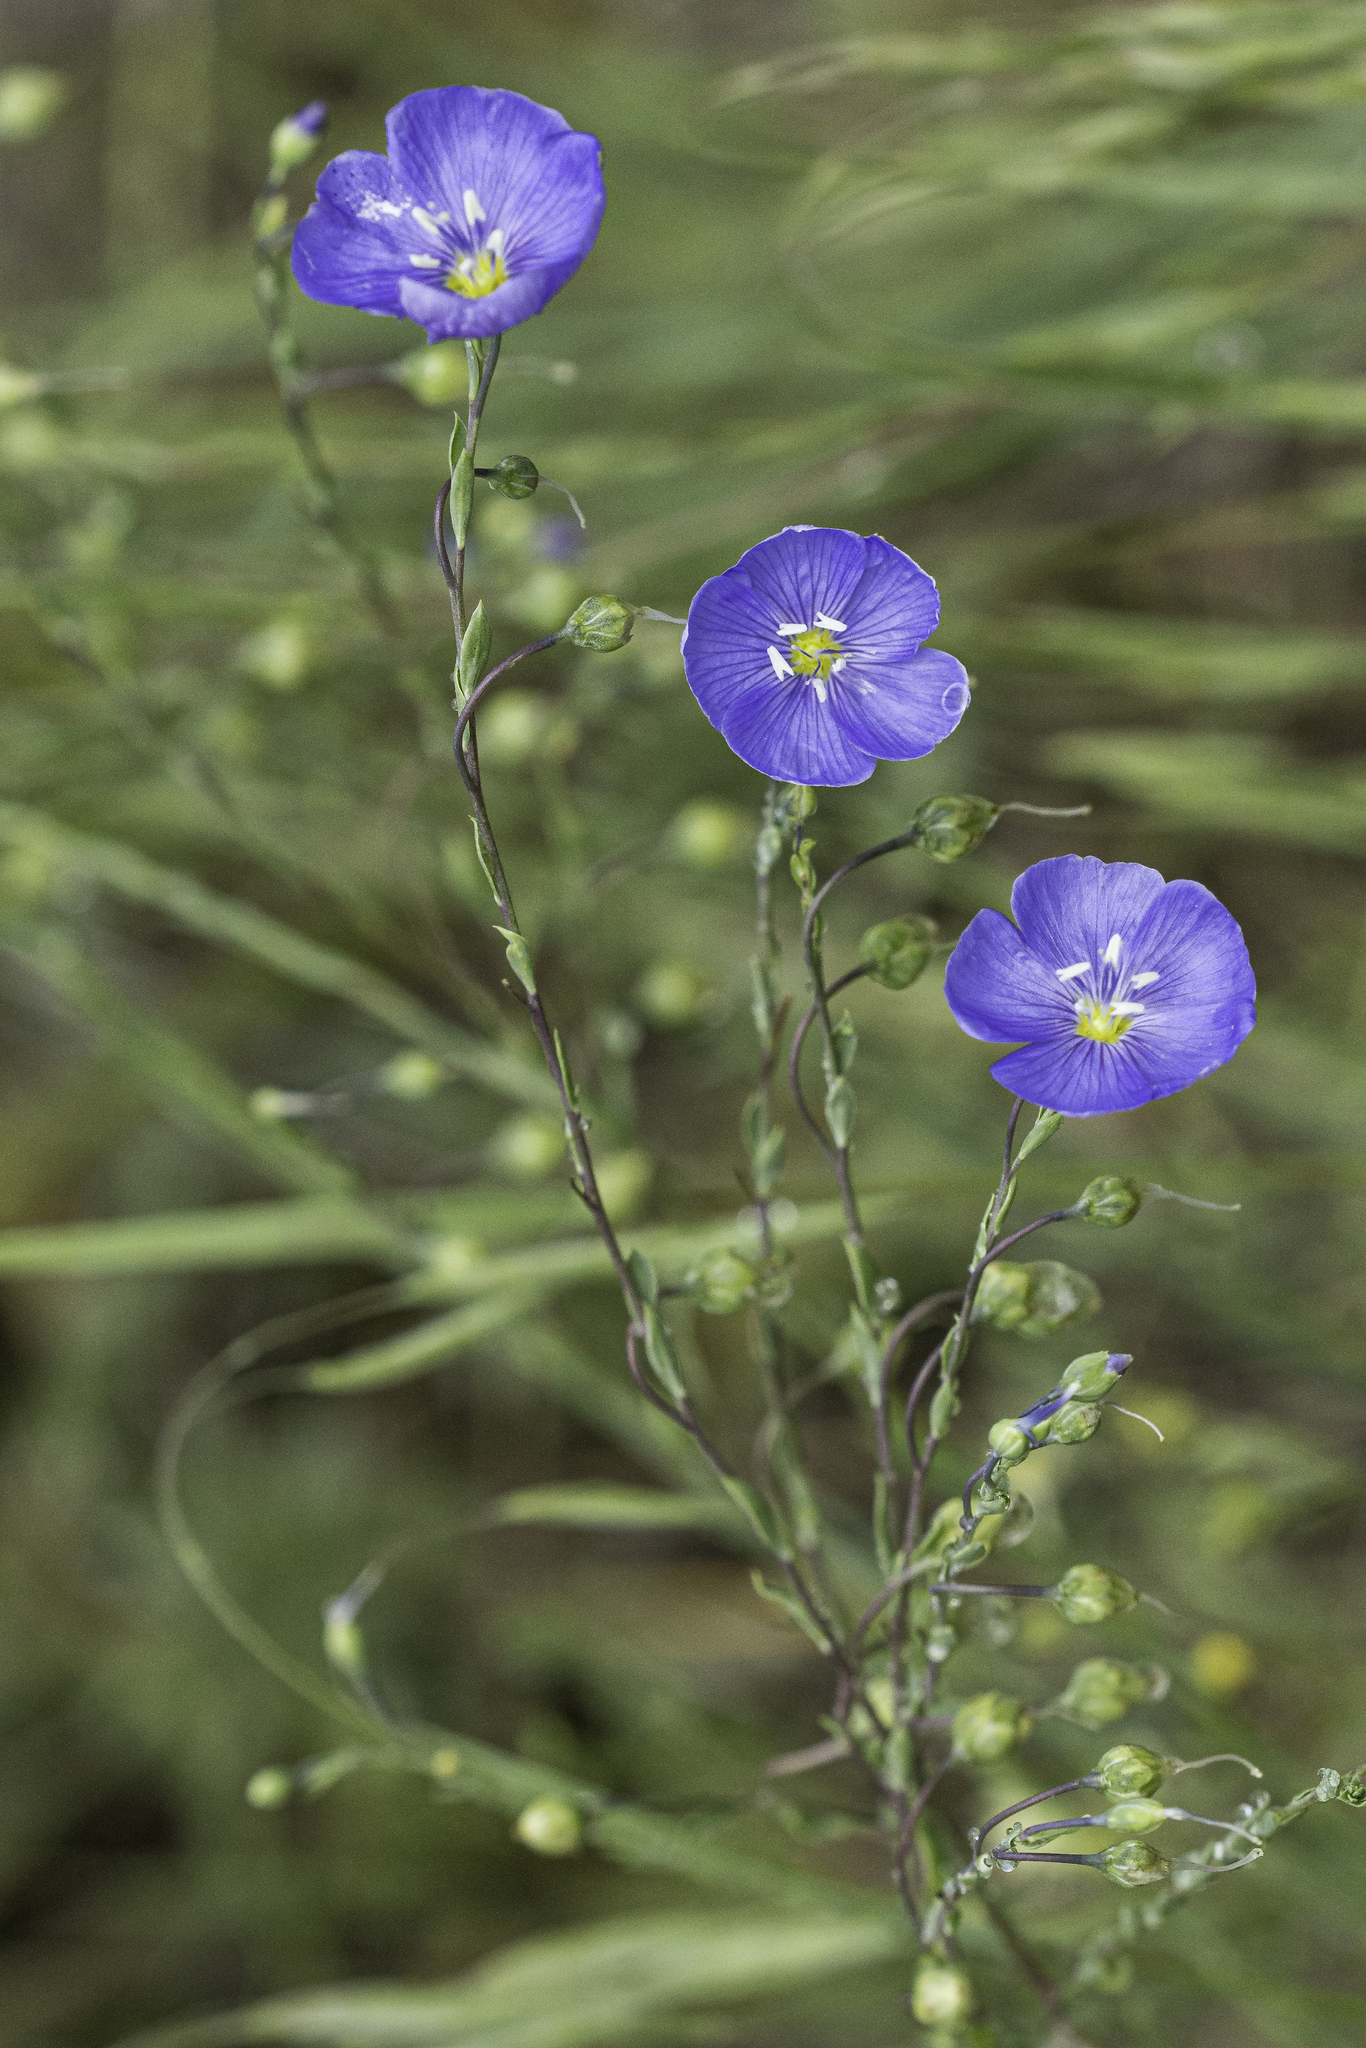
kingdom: Plantae
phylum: Tracheophyta
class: Magnoliopsida
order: Malpighiales
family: Linaceae
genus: Linum
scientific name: Linum lewisii
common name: Prairie flax
